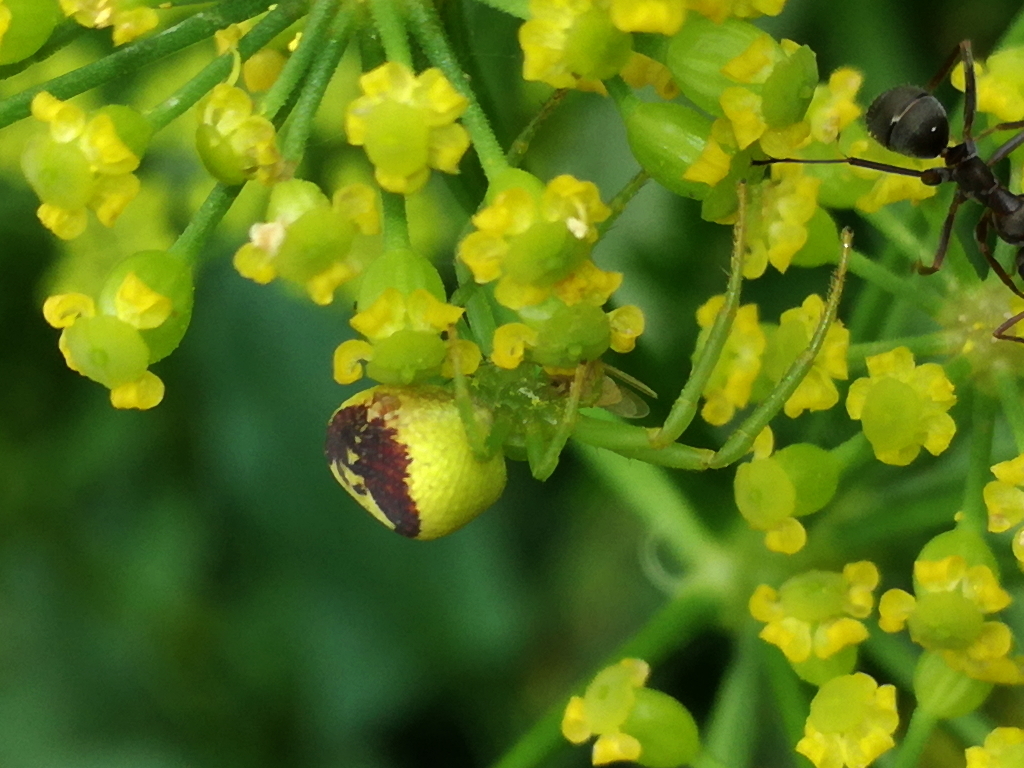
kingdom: Animalia
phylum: Arthropoda
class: Arachnida
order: Araneae
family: Thomisidae
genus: Ebrechtella
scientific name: Ebrechtella tricuspidata
